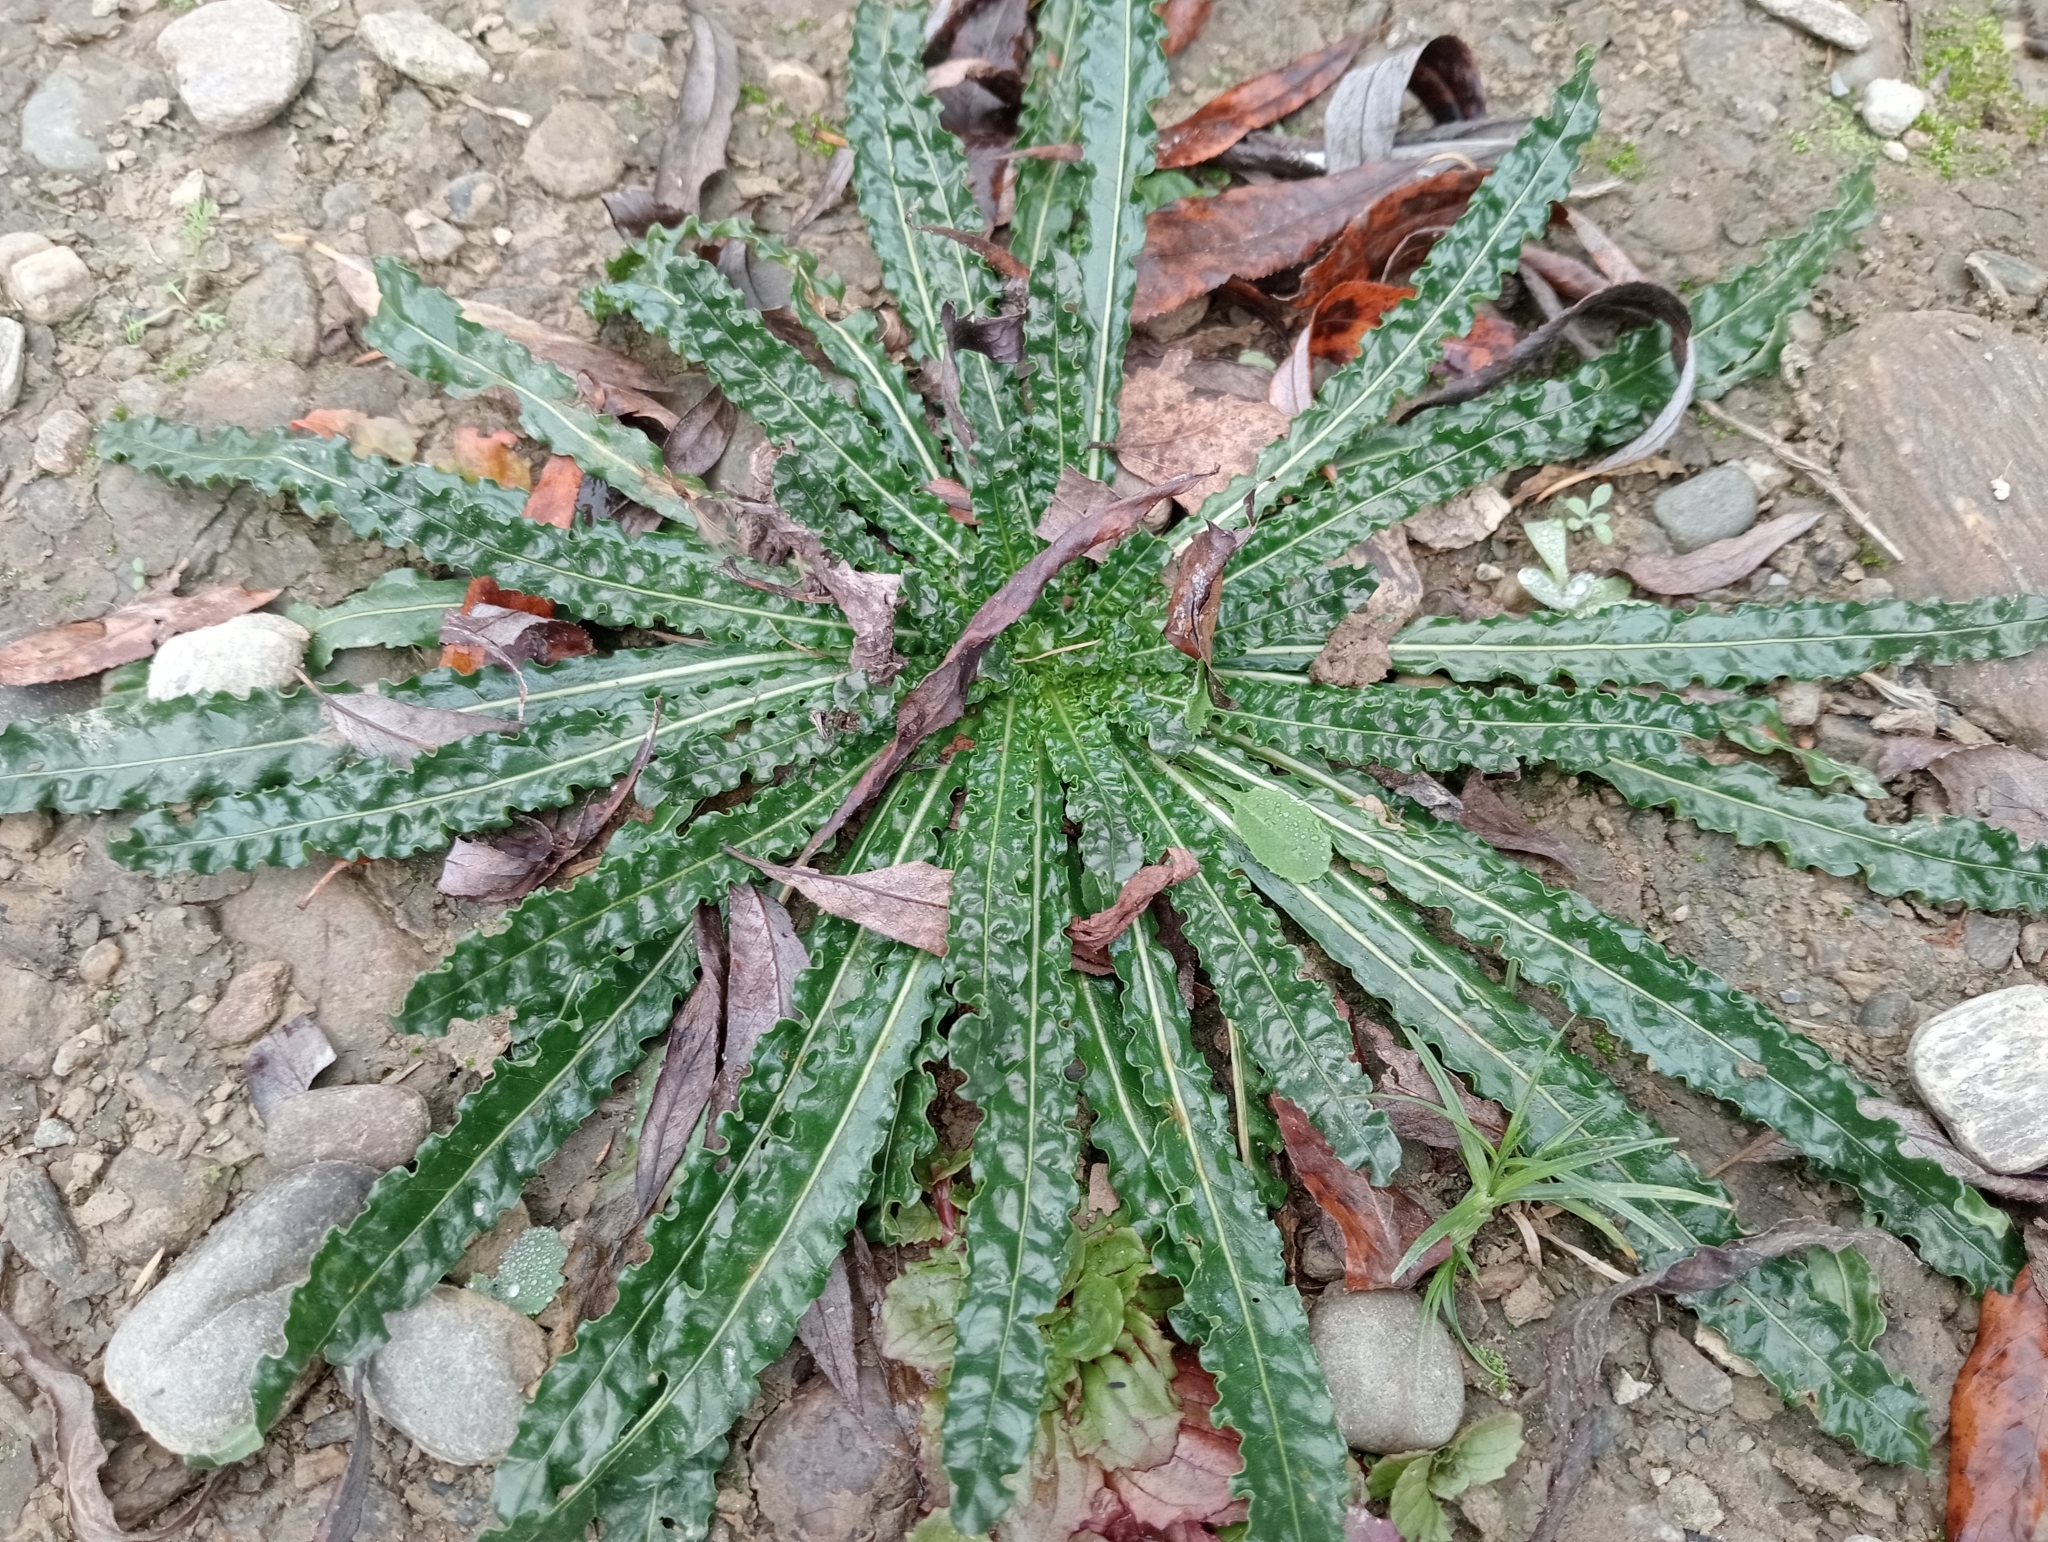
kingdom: Plantae
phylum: Tracheophyta
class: Magnoliopsida
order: Brassicales
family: Resedaceae
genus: Reseda
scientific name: Reseda luteola
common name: Weld
